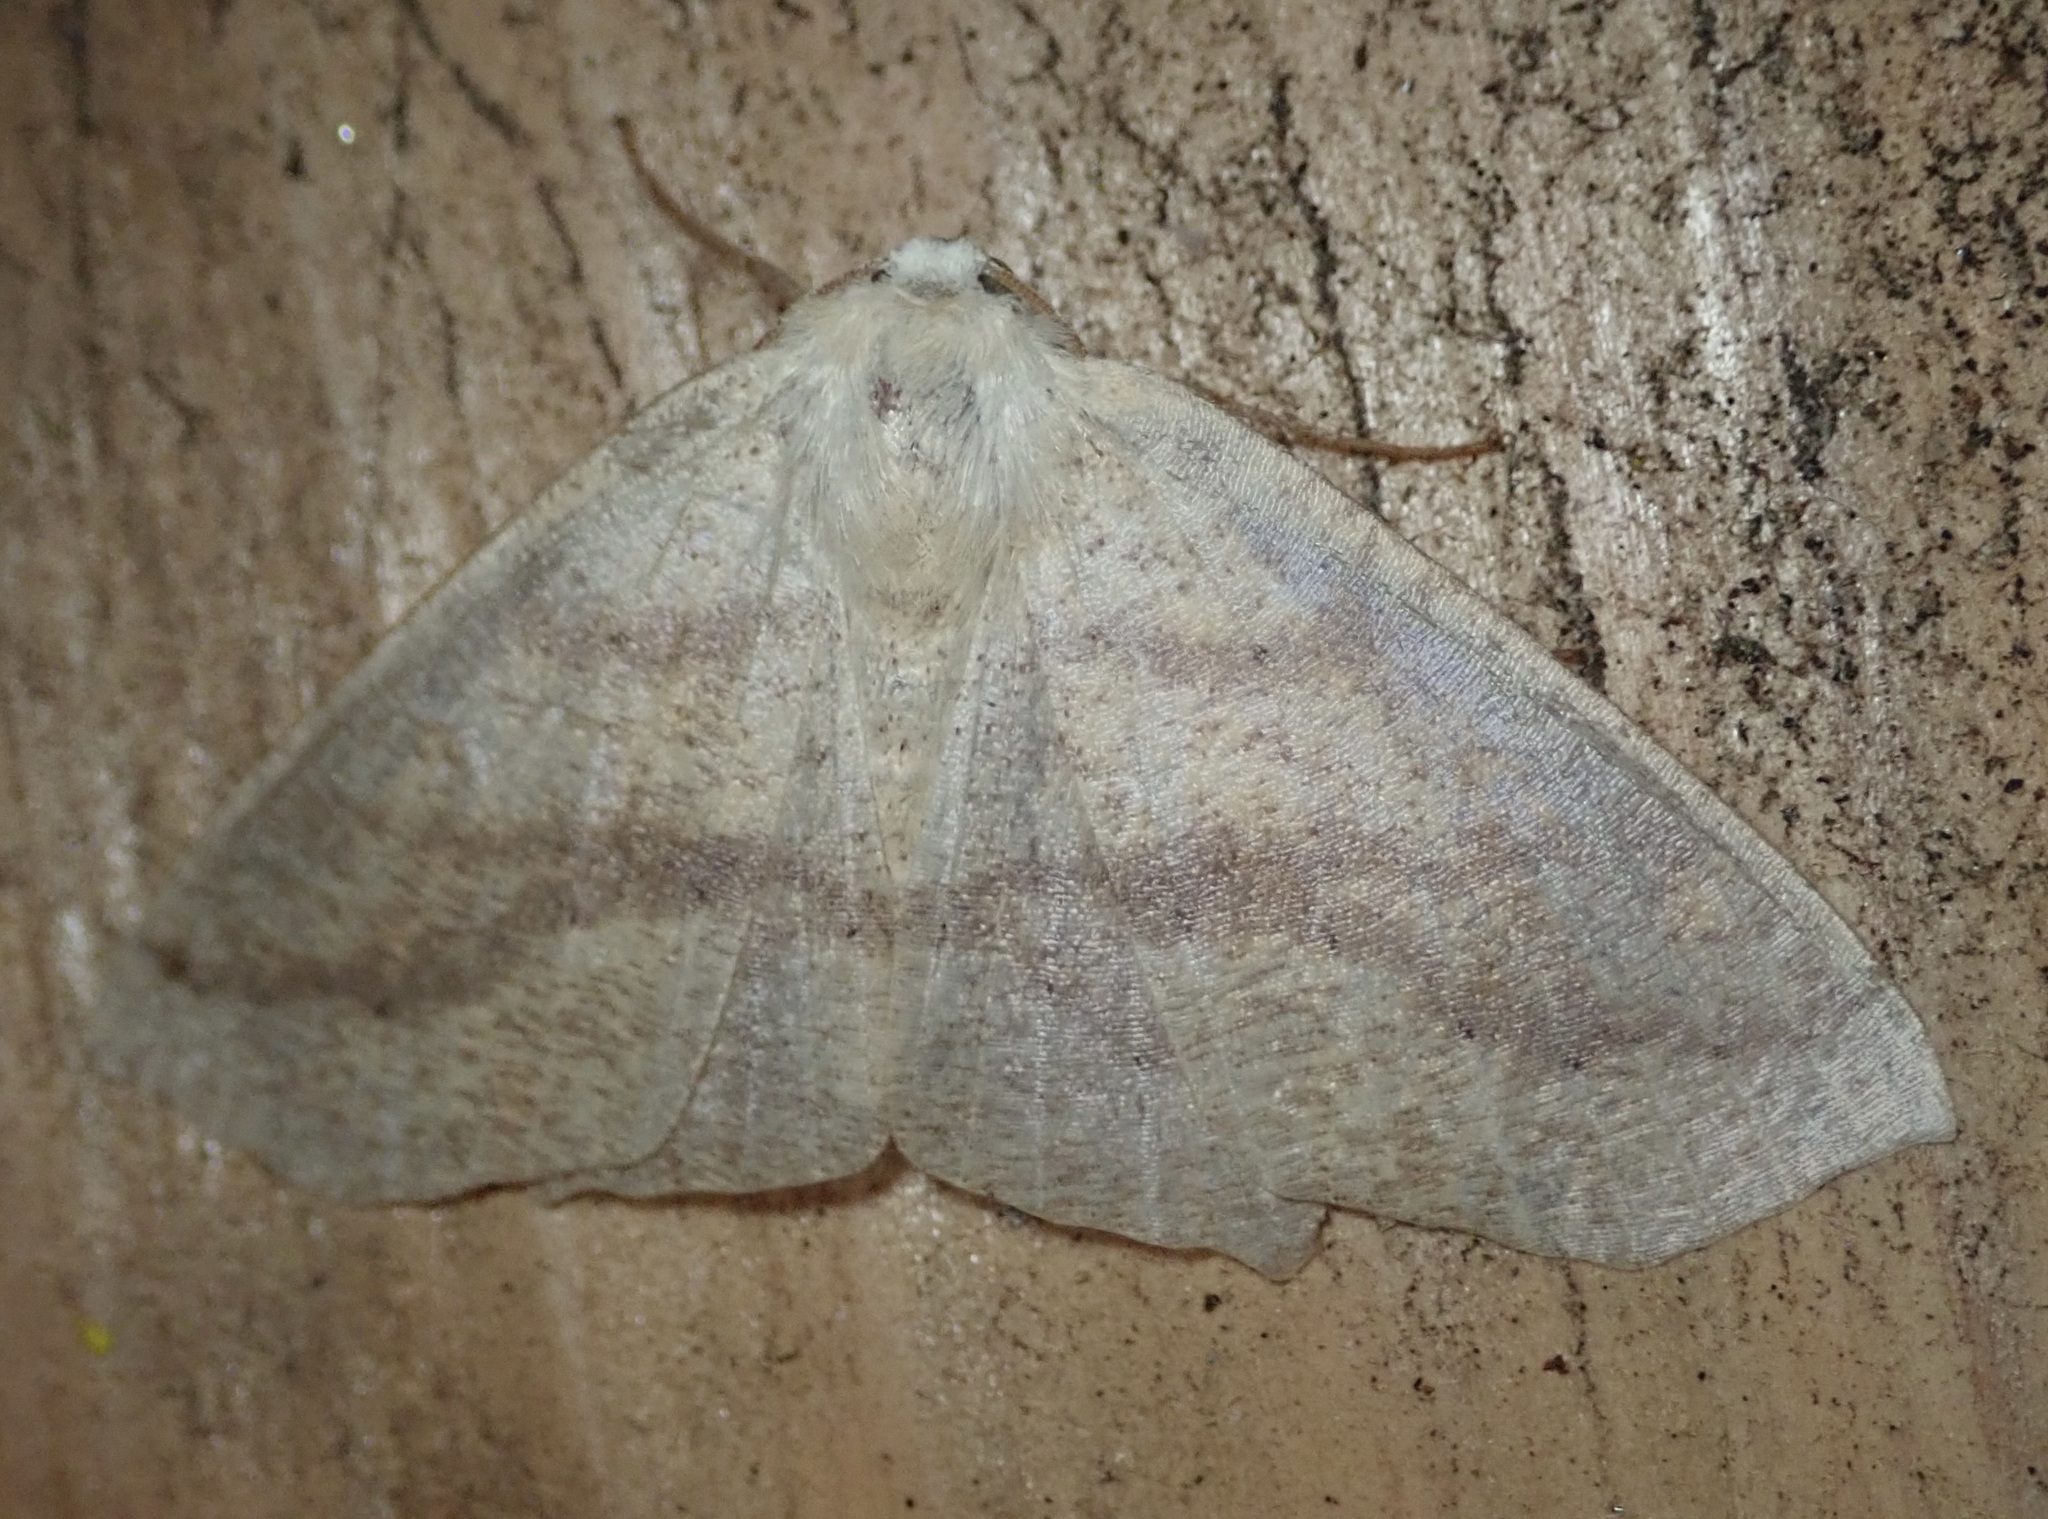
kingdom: Animalia
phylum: Arthropoda
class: Insecta
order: Lepidoptera
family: Geometridae
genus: Sabulodes
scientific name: Sabulodes aegrotata
